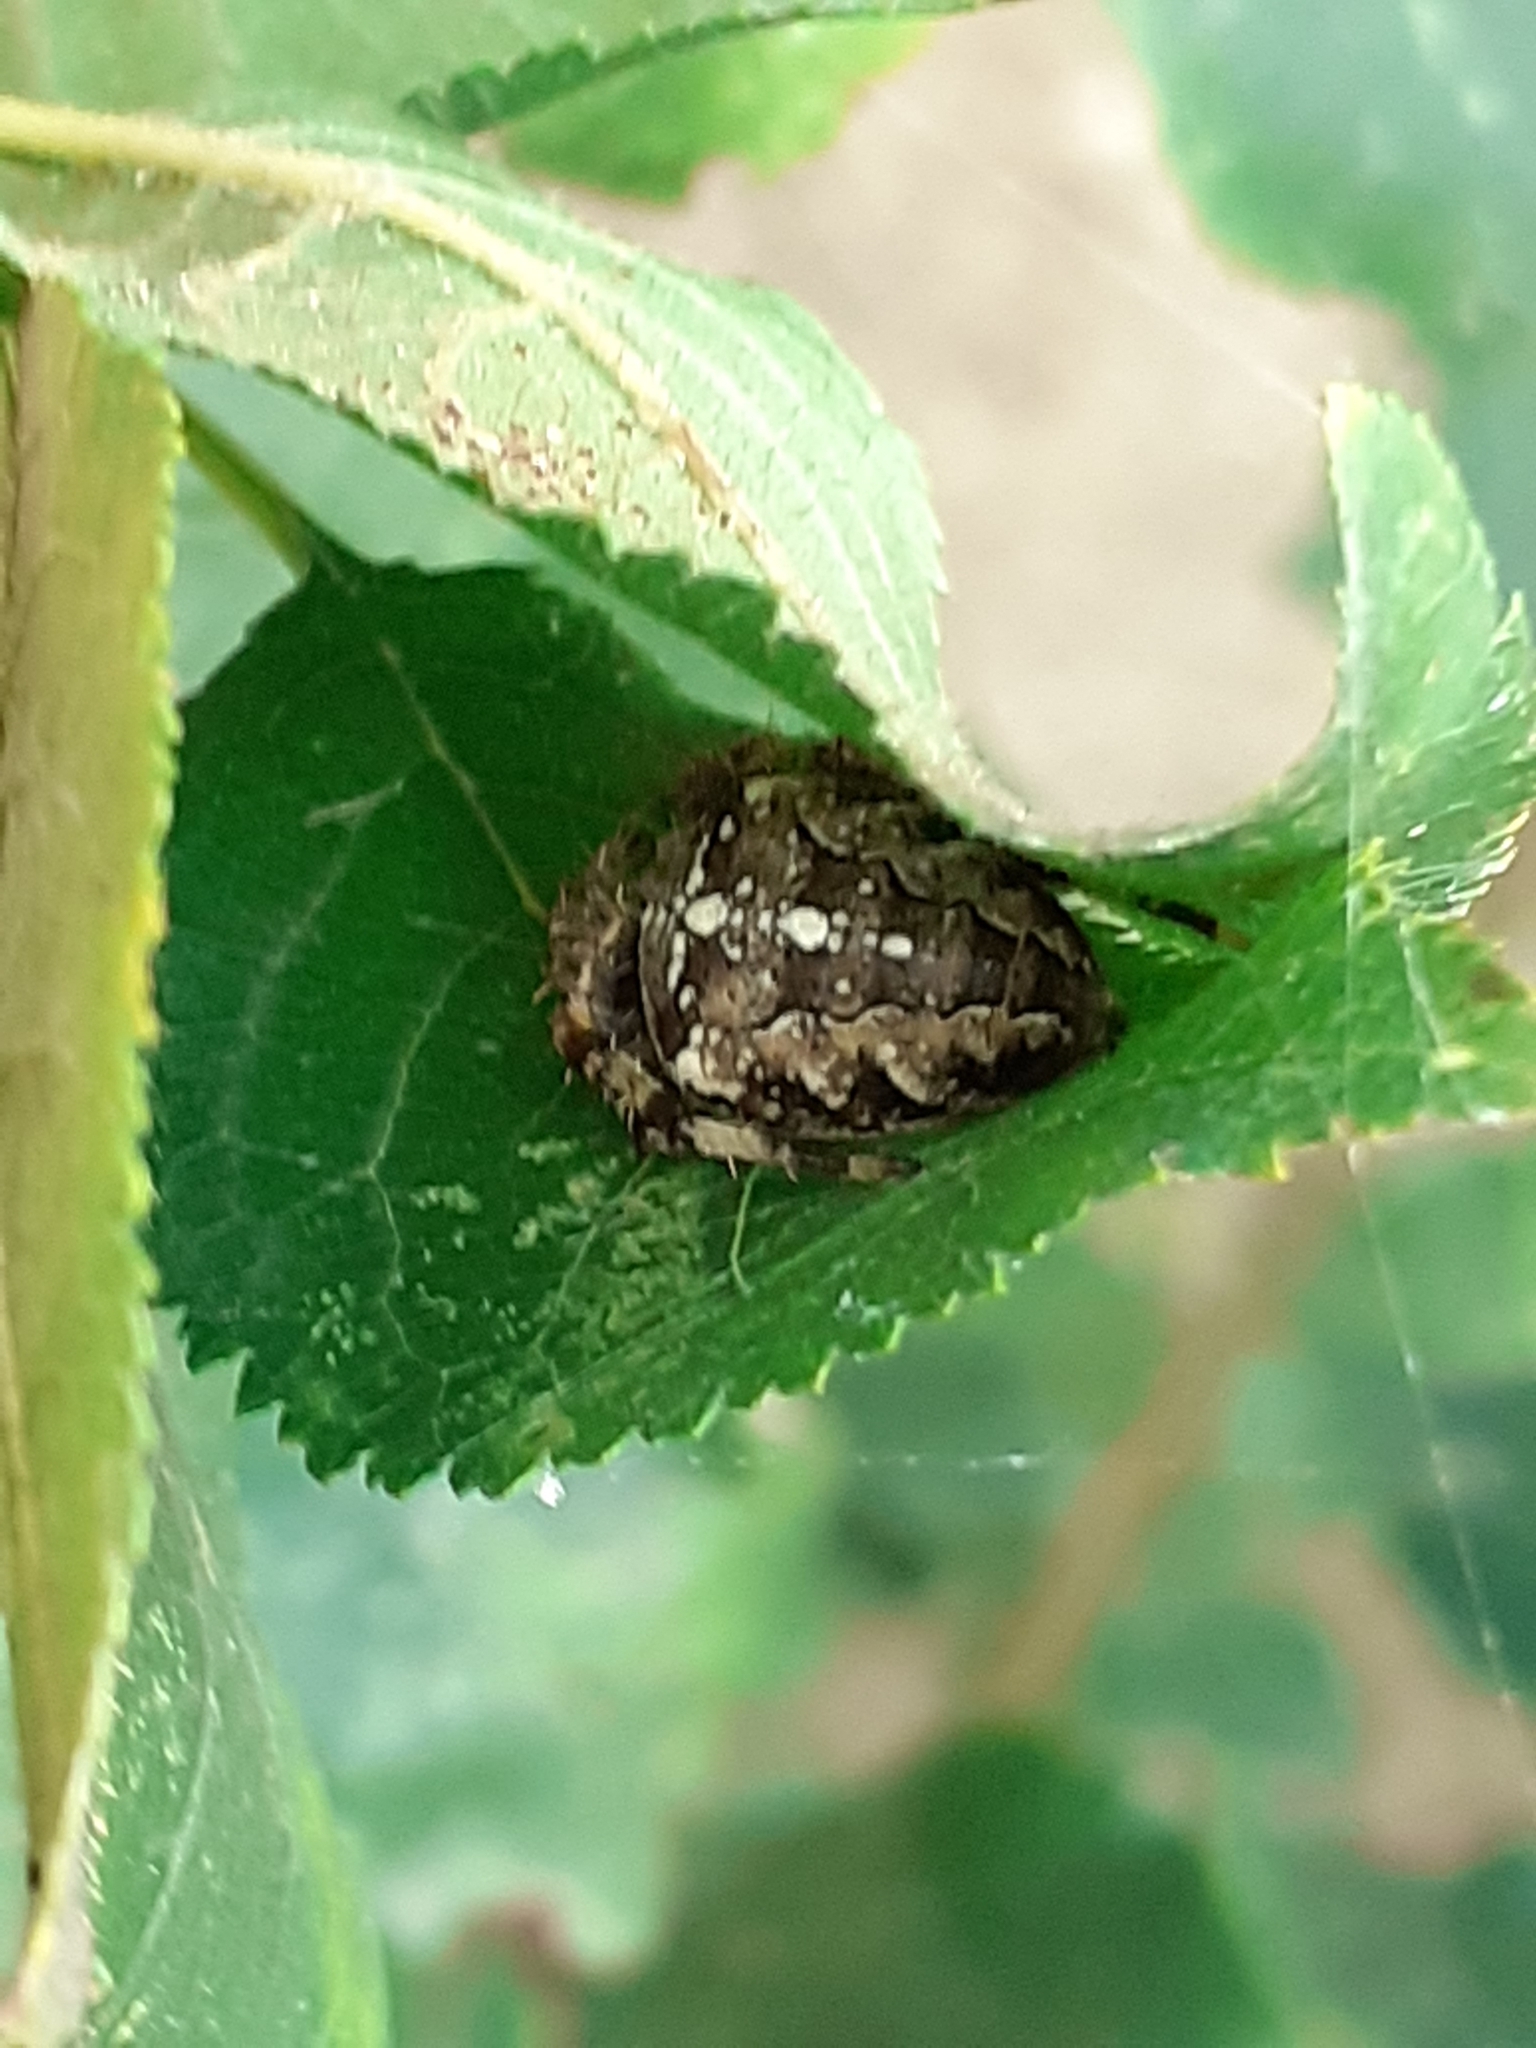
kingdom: Animalia
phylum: Arthropoda
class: Arachnida
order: Araneae
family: Araneidae
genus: Araneus
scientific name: Araneus diadematus
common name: Cross orbweaver
